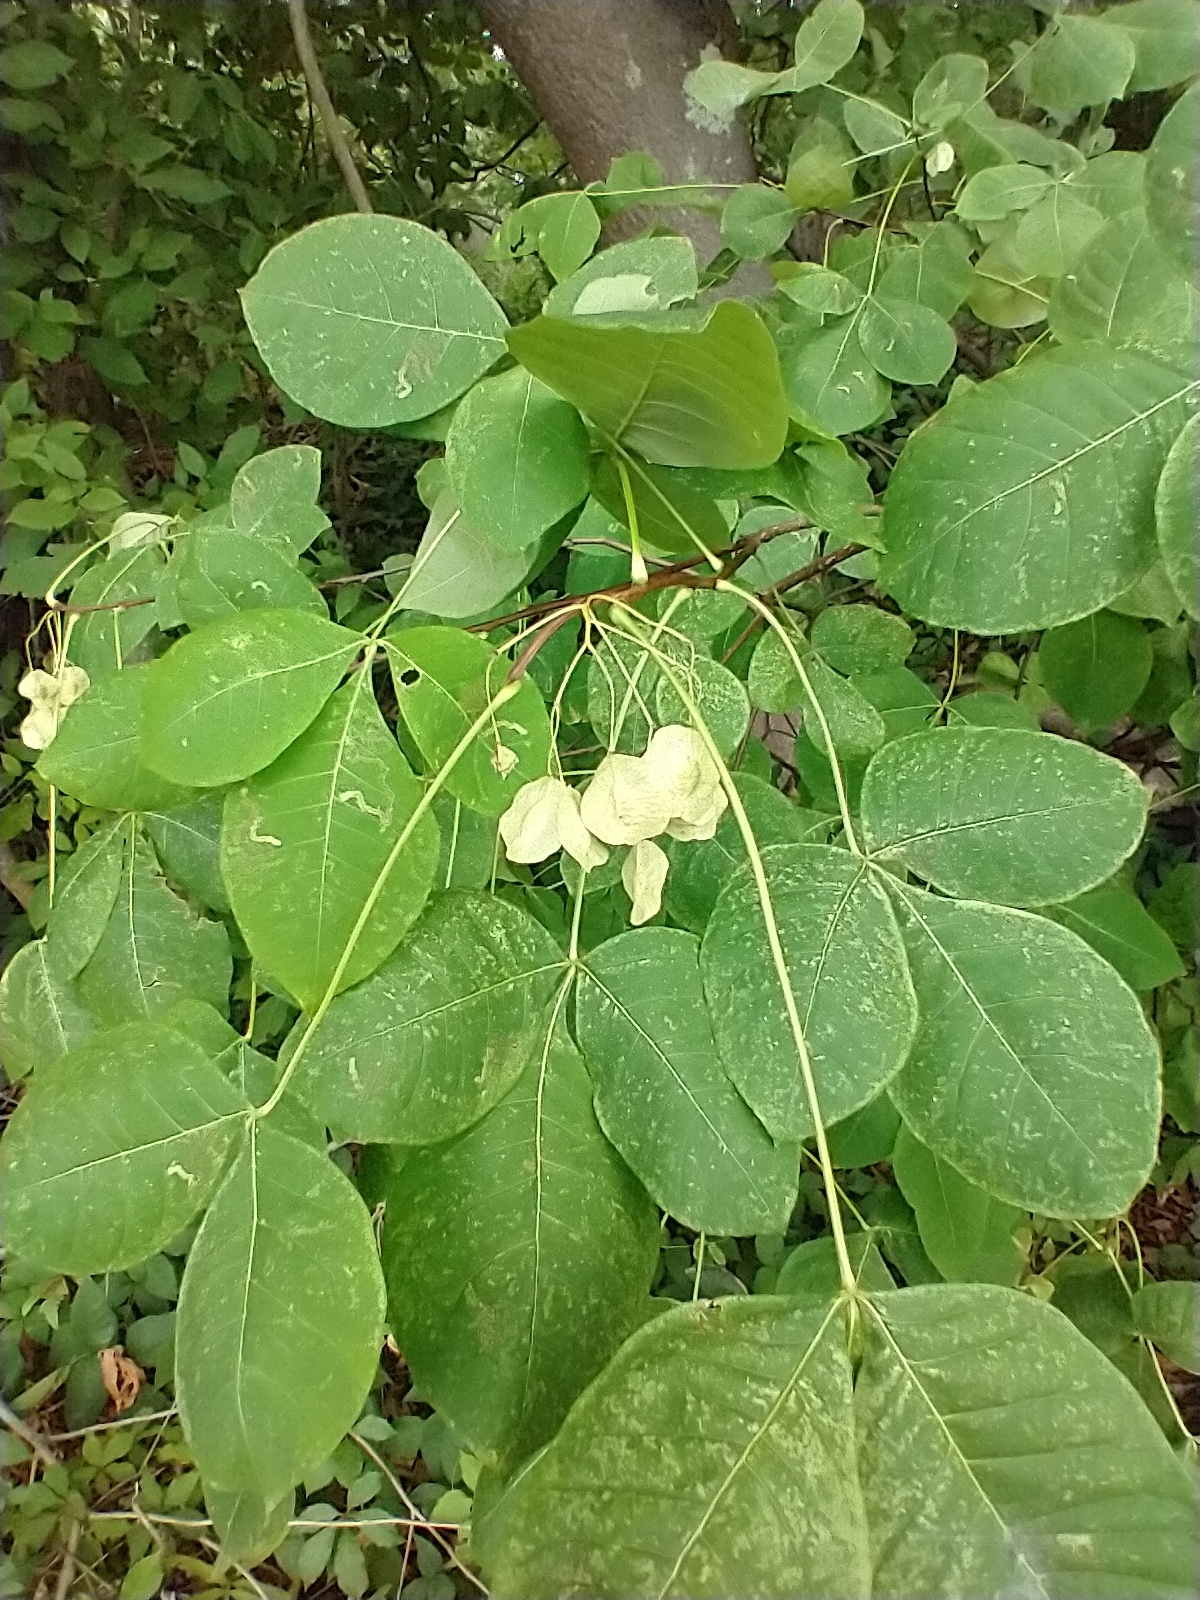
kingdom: Plantae
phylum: Tracheophyta
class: Magnoliopsida
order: Sapindales
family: Rutaceae
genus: Ptelea
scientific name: Ptelea trifoliata
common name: Common hop-tree
